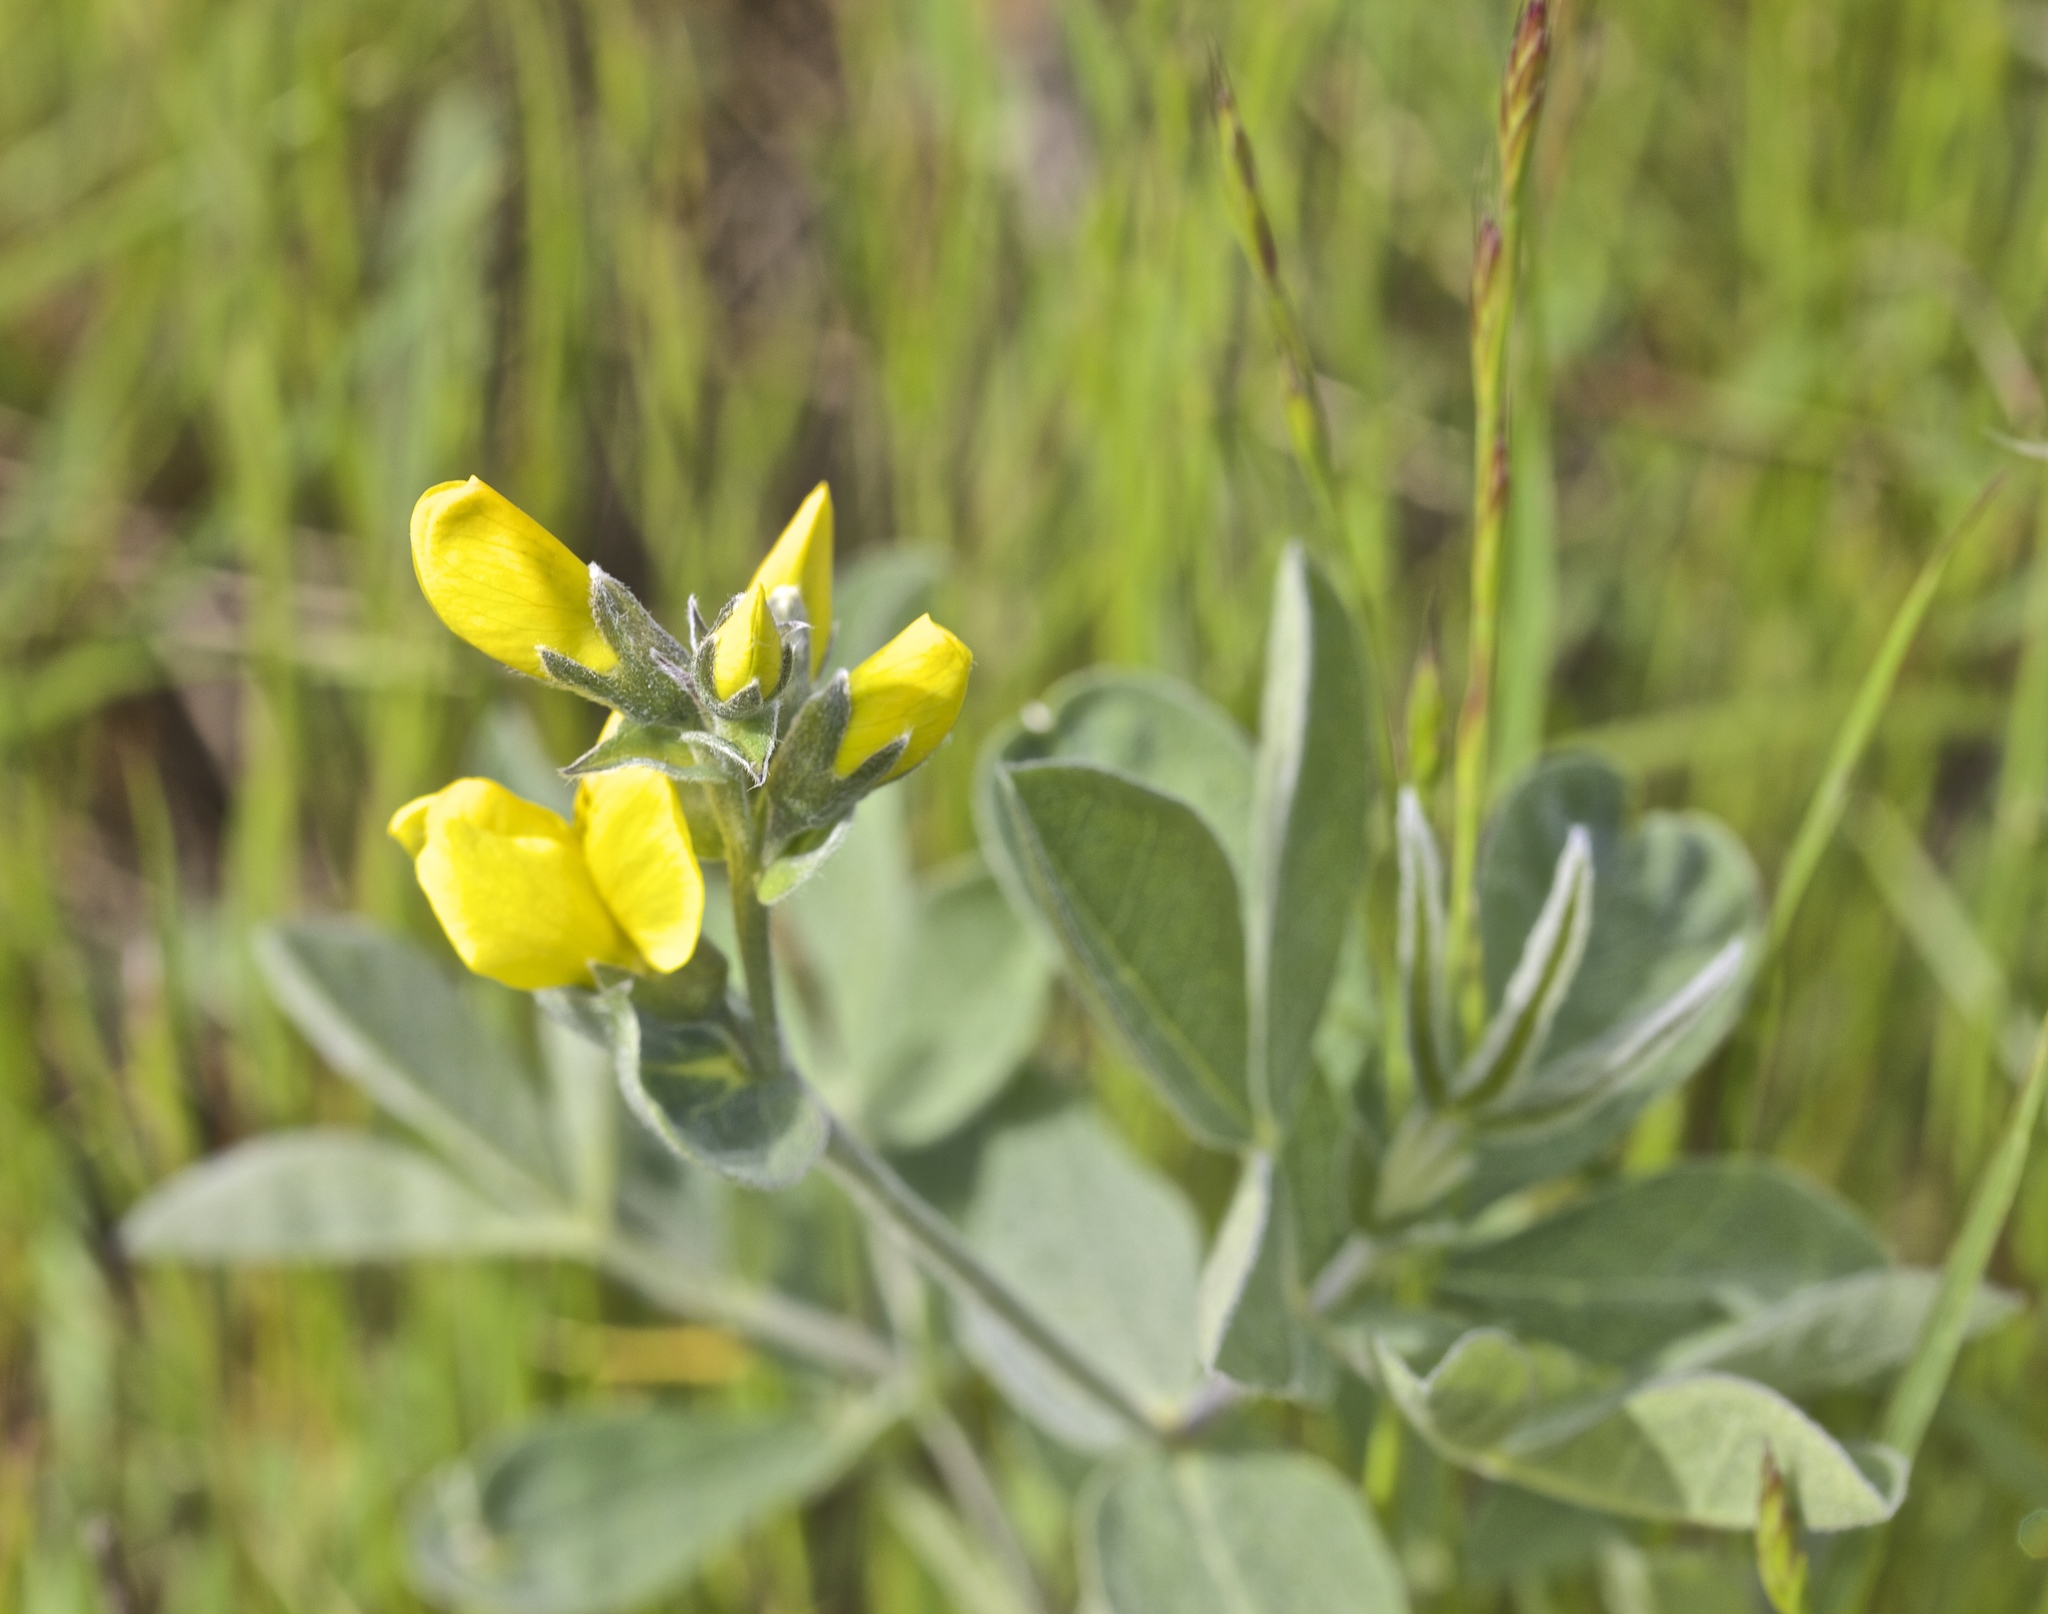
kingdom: Plantae
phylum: Tracheophyta
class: Magnoliopsida
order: Fabales
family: Fabaceae
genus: Thermopsis
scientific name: Thermopsis californica
